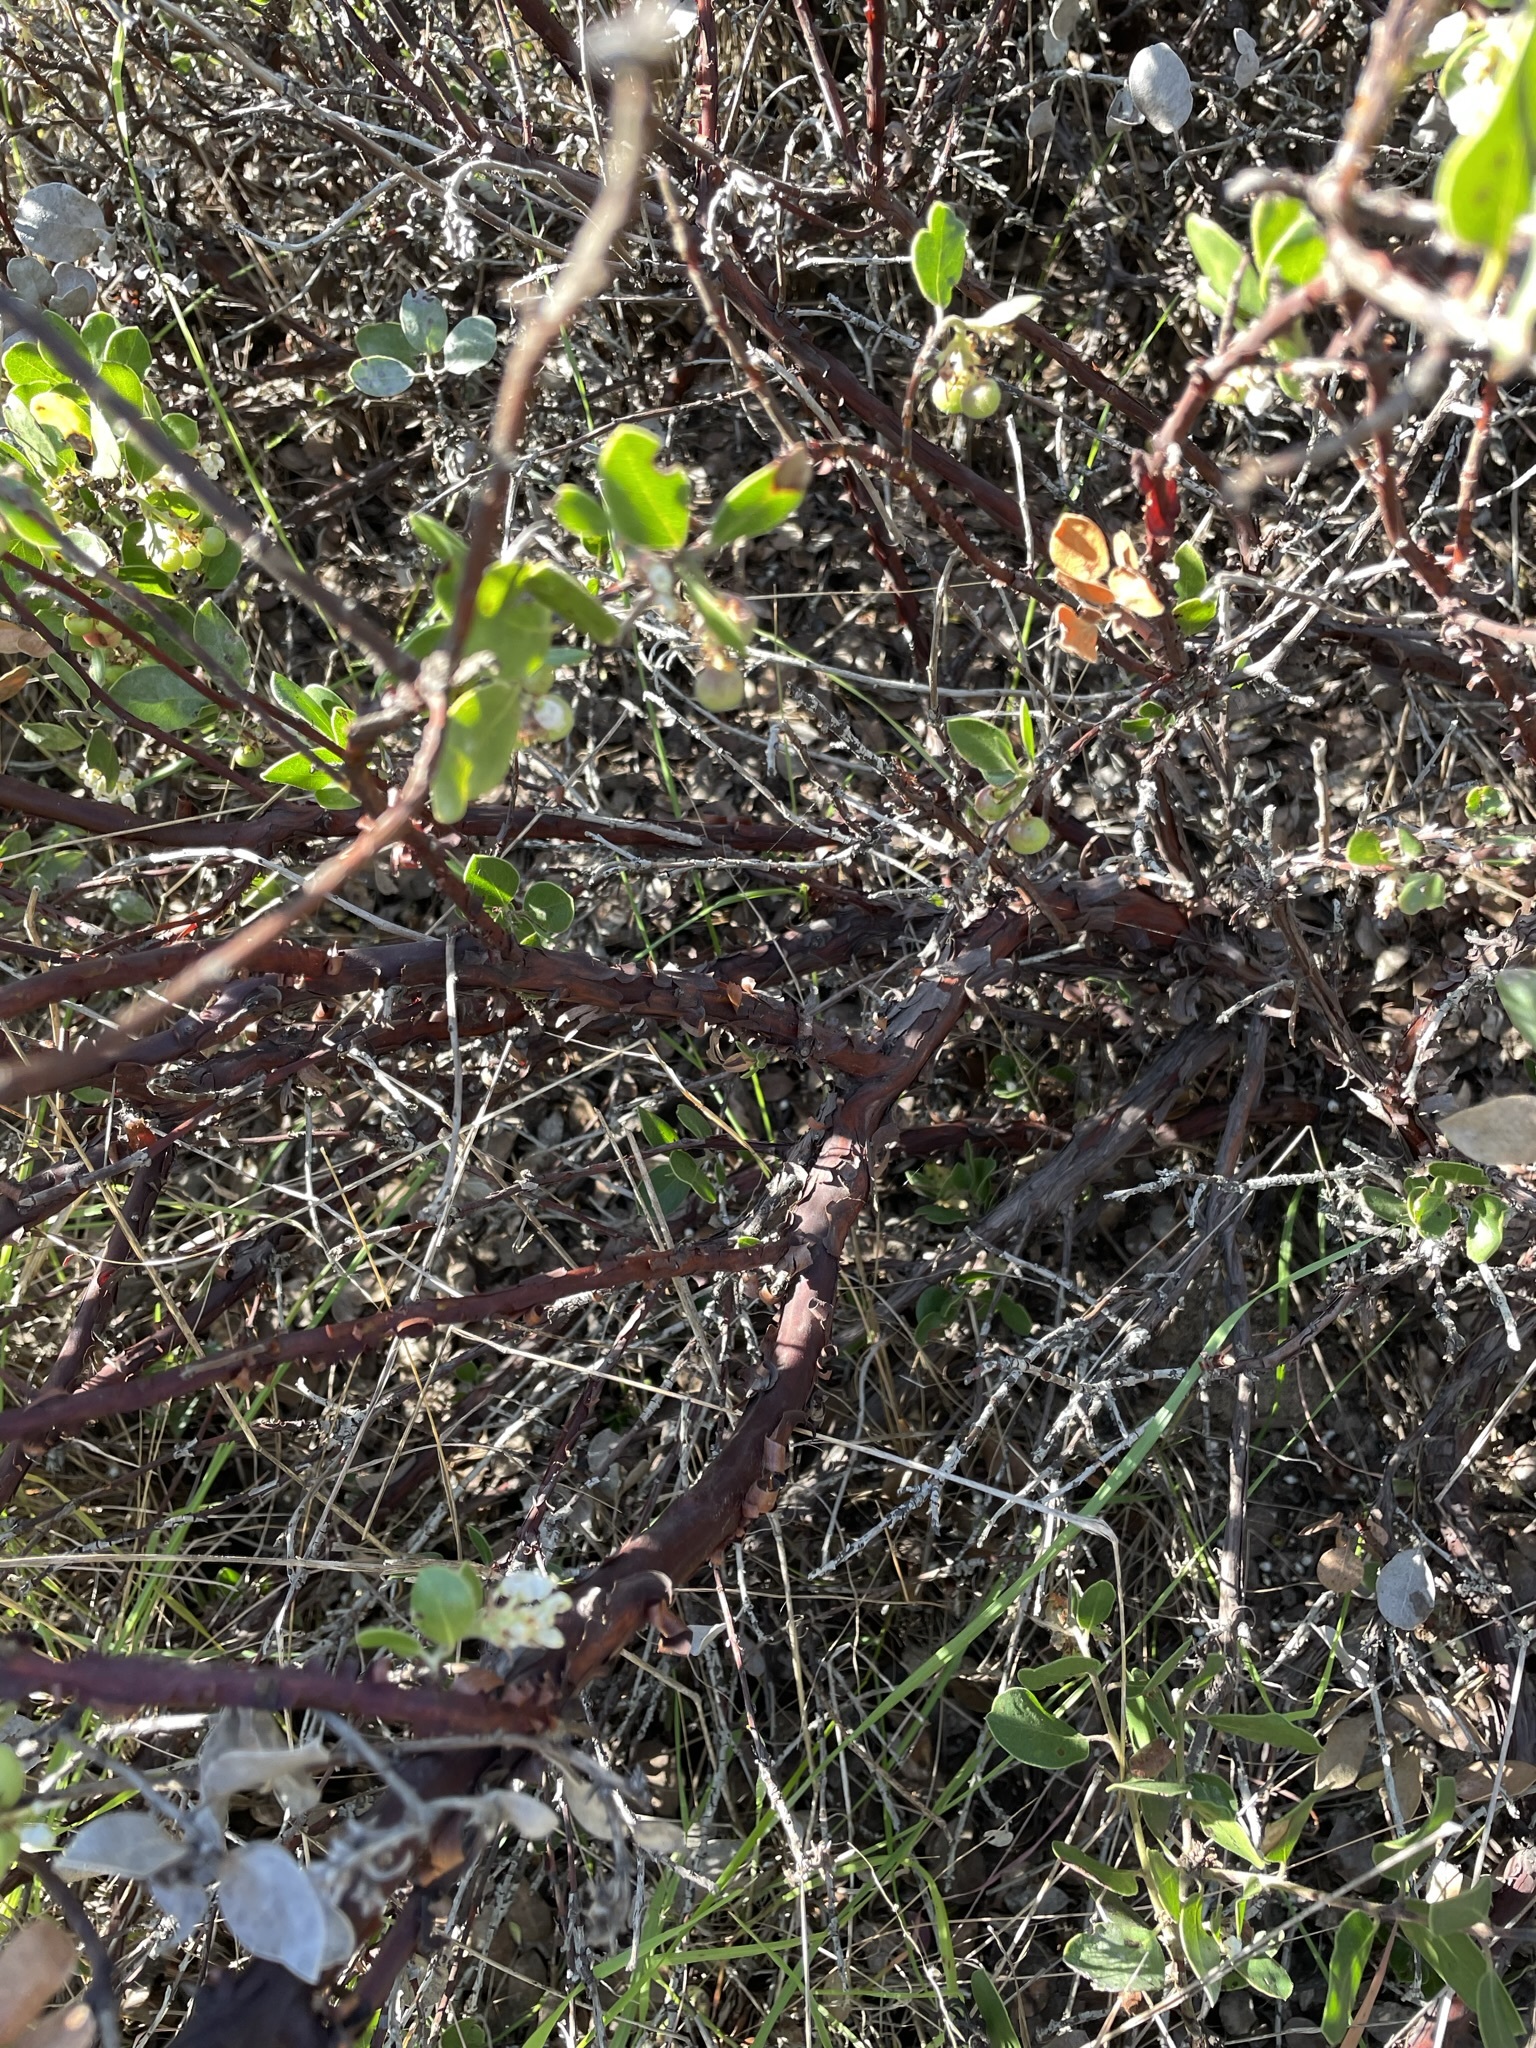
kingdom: Plantae
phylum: Tracheophyta
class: Magnoliopsida
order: Ericales
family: Ericaceae
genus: Arctostaphylos
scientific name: Arctostaphylos rudis
